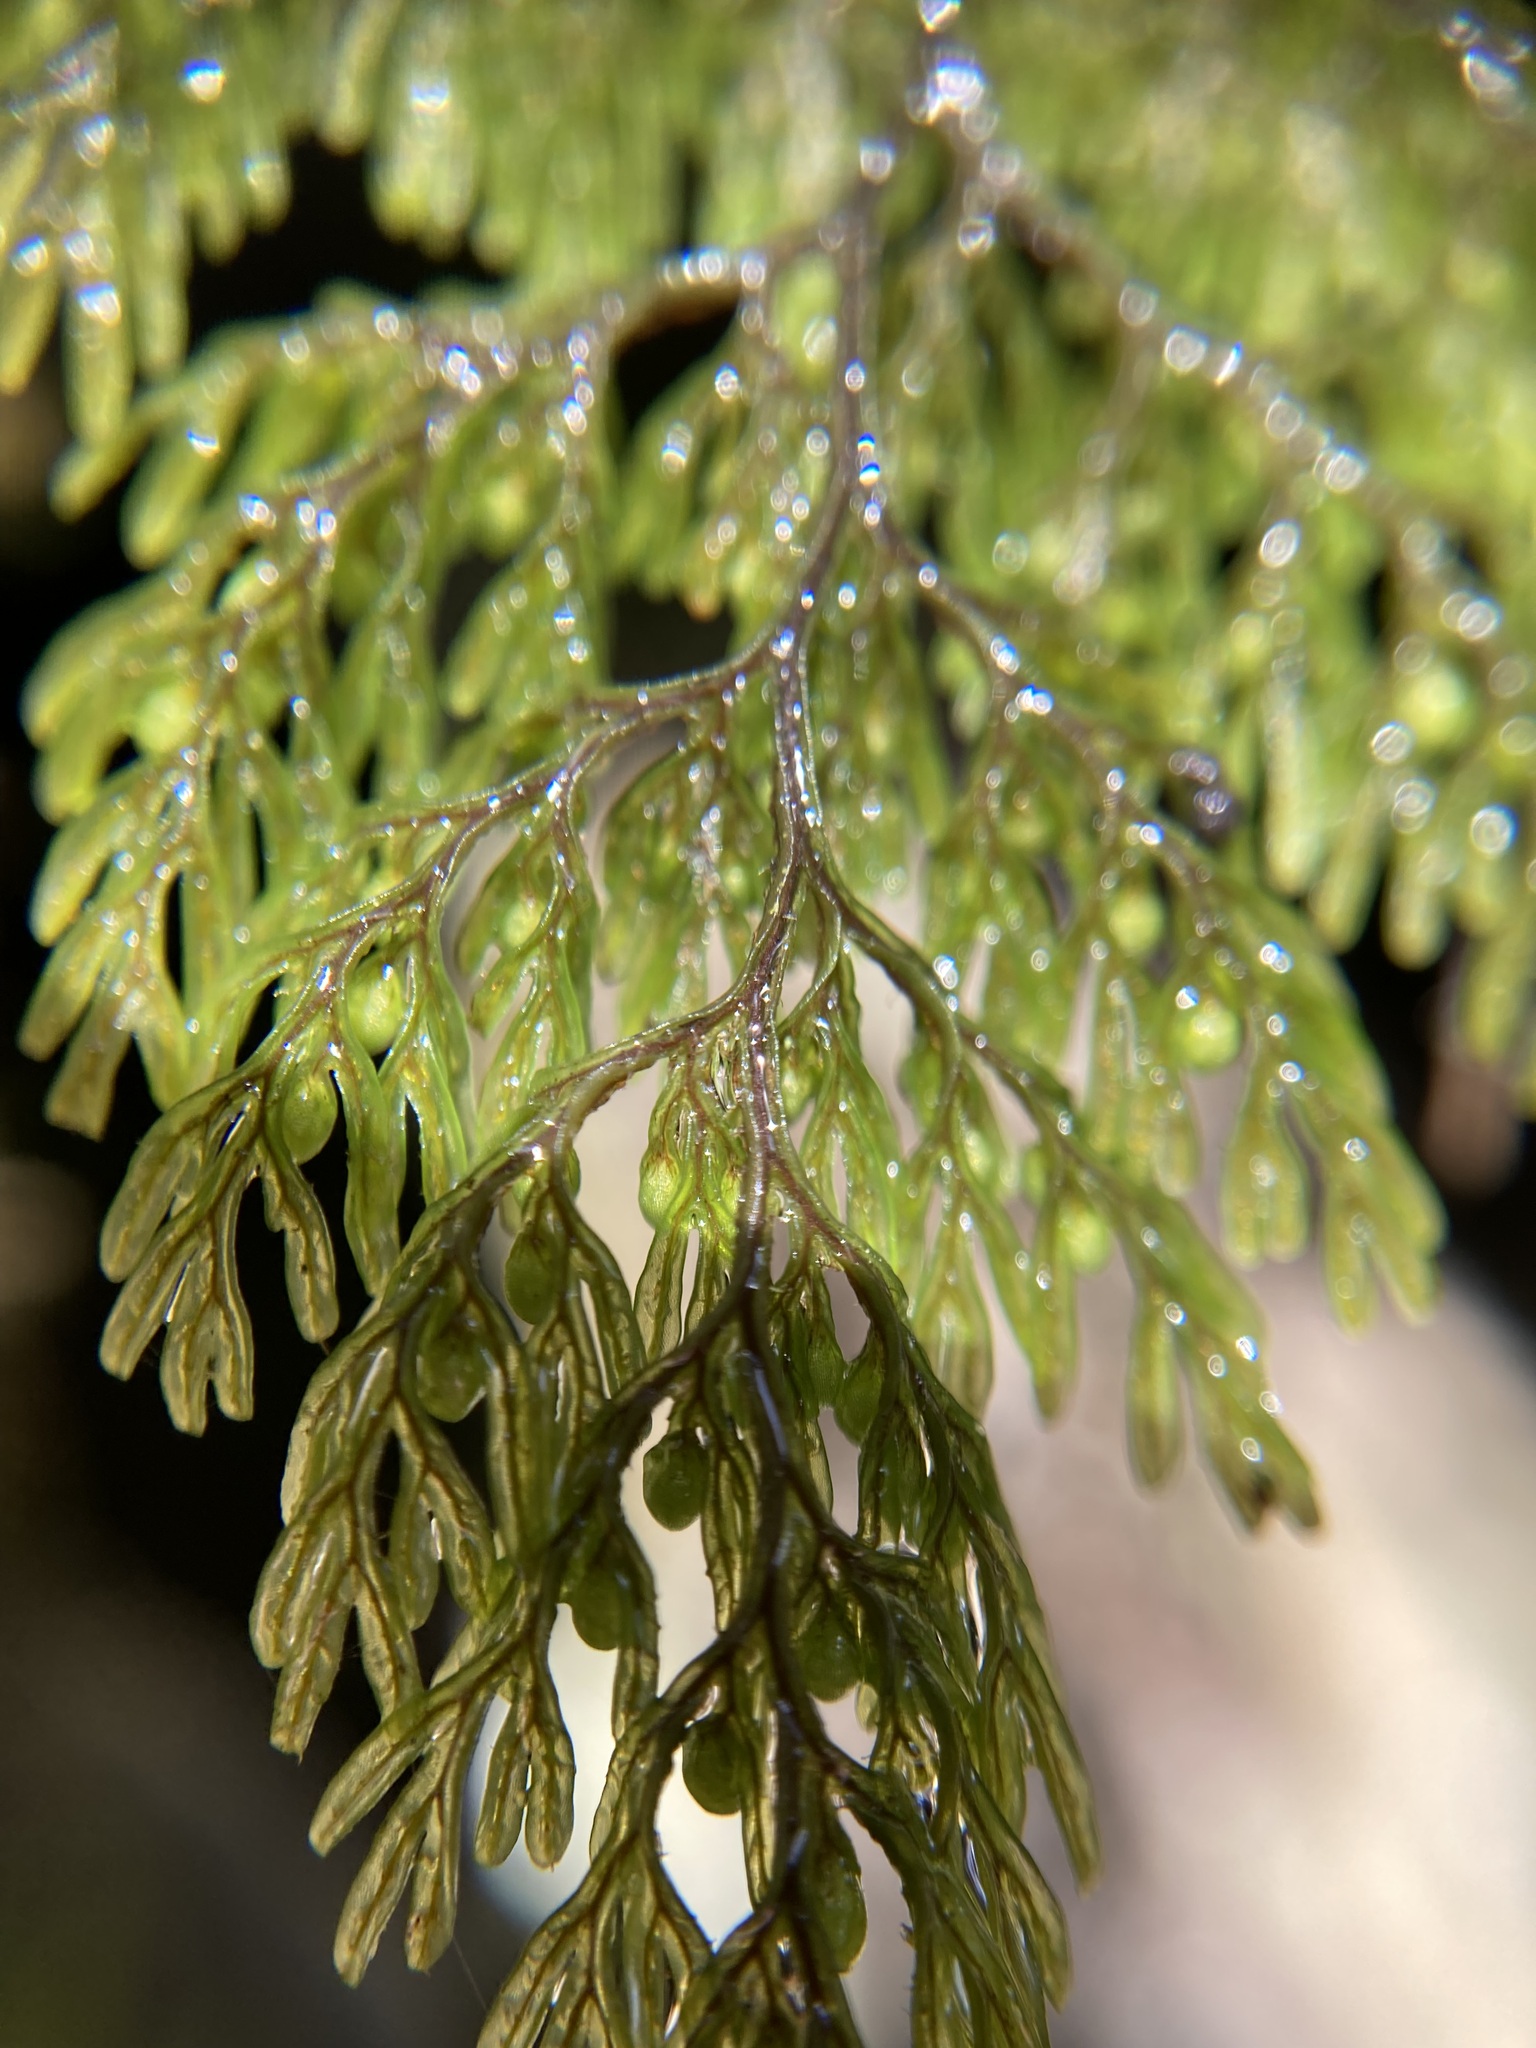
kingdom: Plantae
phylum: Tracheophyta
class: Polypodiopsida
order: Hymenophyllales
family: Hymenophyllaceae
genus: Hymenophyllum
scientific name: Hymenophyllum villosum
